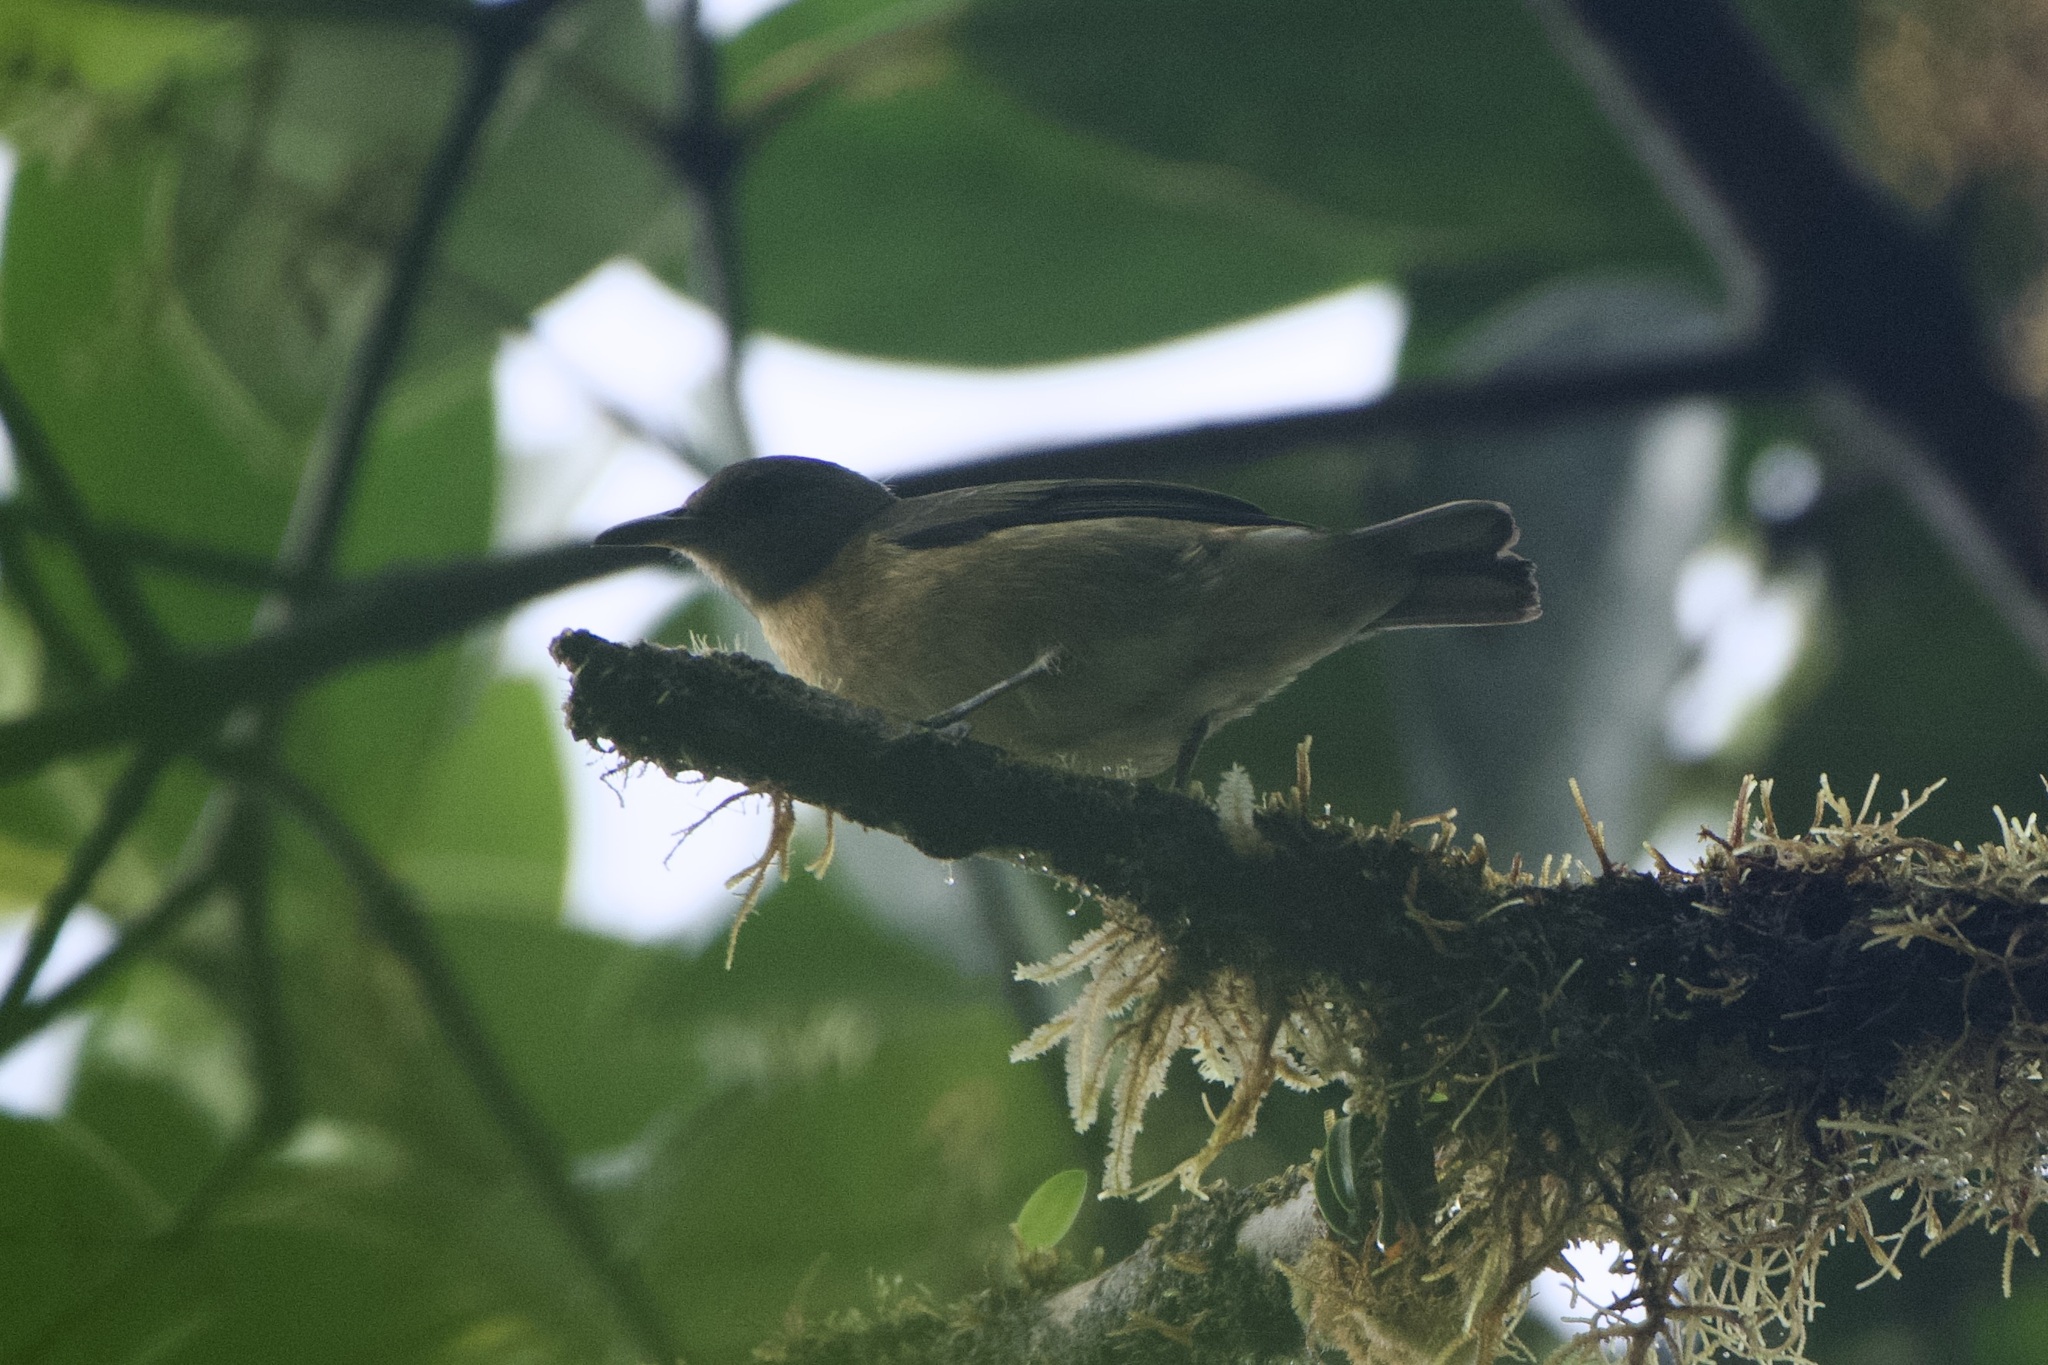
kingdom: Animalia
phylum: Chordata
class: Aves
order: Passeriformes
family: Thraupidae
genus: Iridophanes
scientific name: Iridophanes pulcherrimus
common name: Golden-collared honeycreeper
